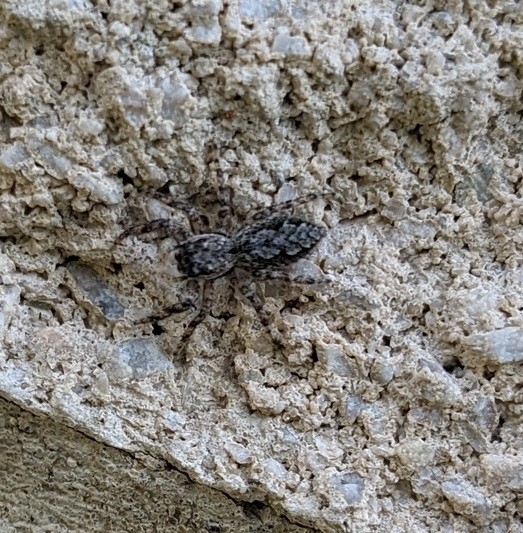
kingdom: Animalia
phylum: Arthropoda
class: Arachnida
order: Araneae
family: Salticidae
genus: Platycryptus
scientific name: Platycryptus undatus
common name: Tan jumping spider
